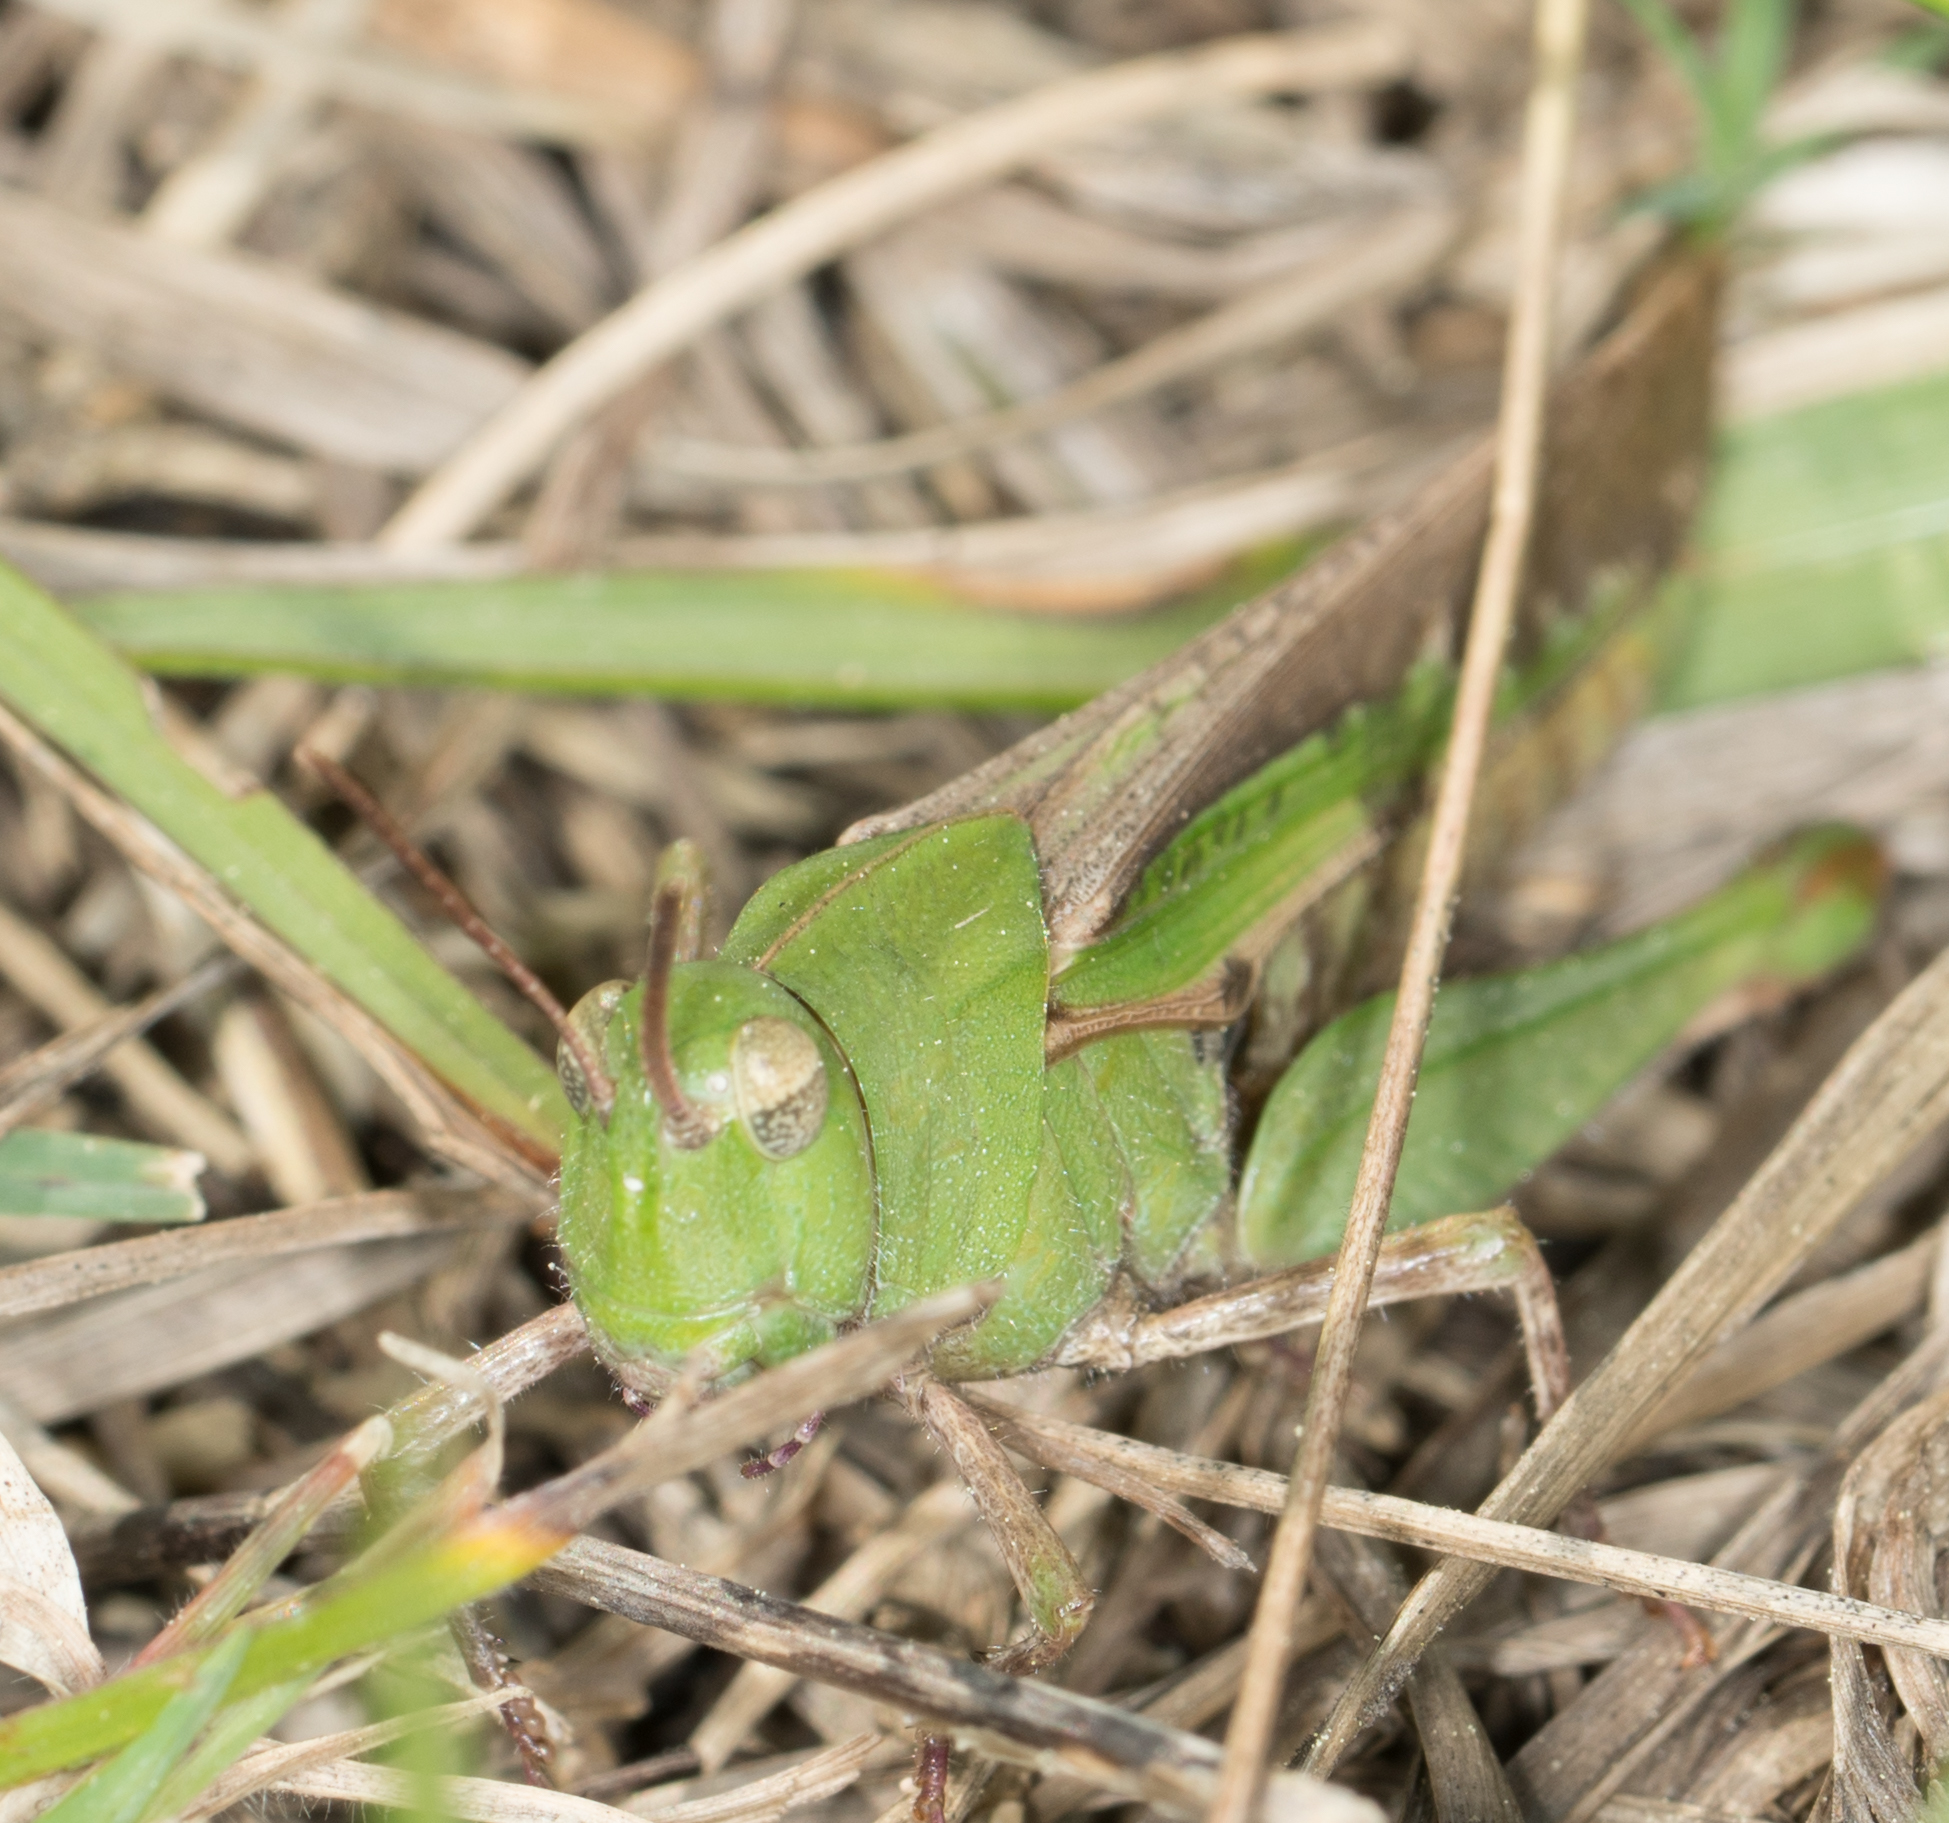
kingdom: Animalia
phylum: Arthropoda
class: Insecta
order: Orthoptera
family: Acrididae
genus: Chortophaga
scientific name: Chortophaga viridifasciata
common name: Green-striped grasshopper
